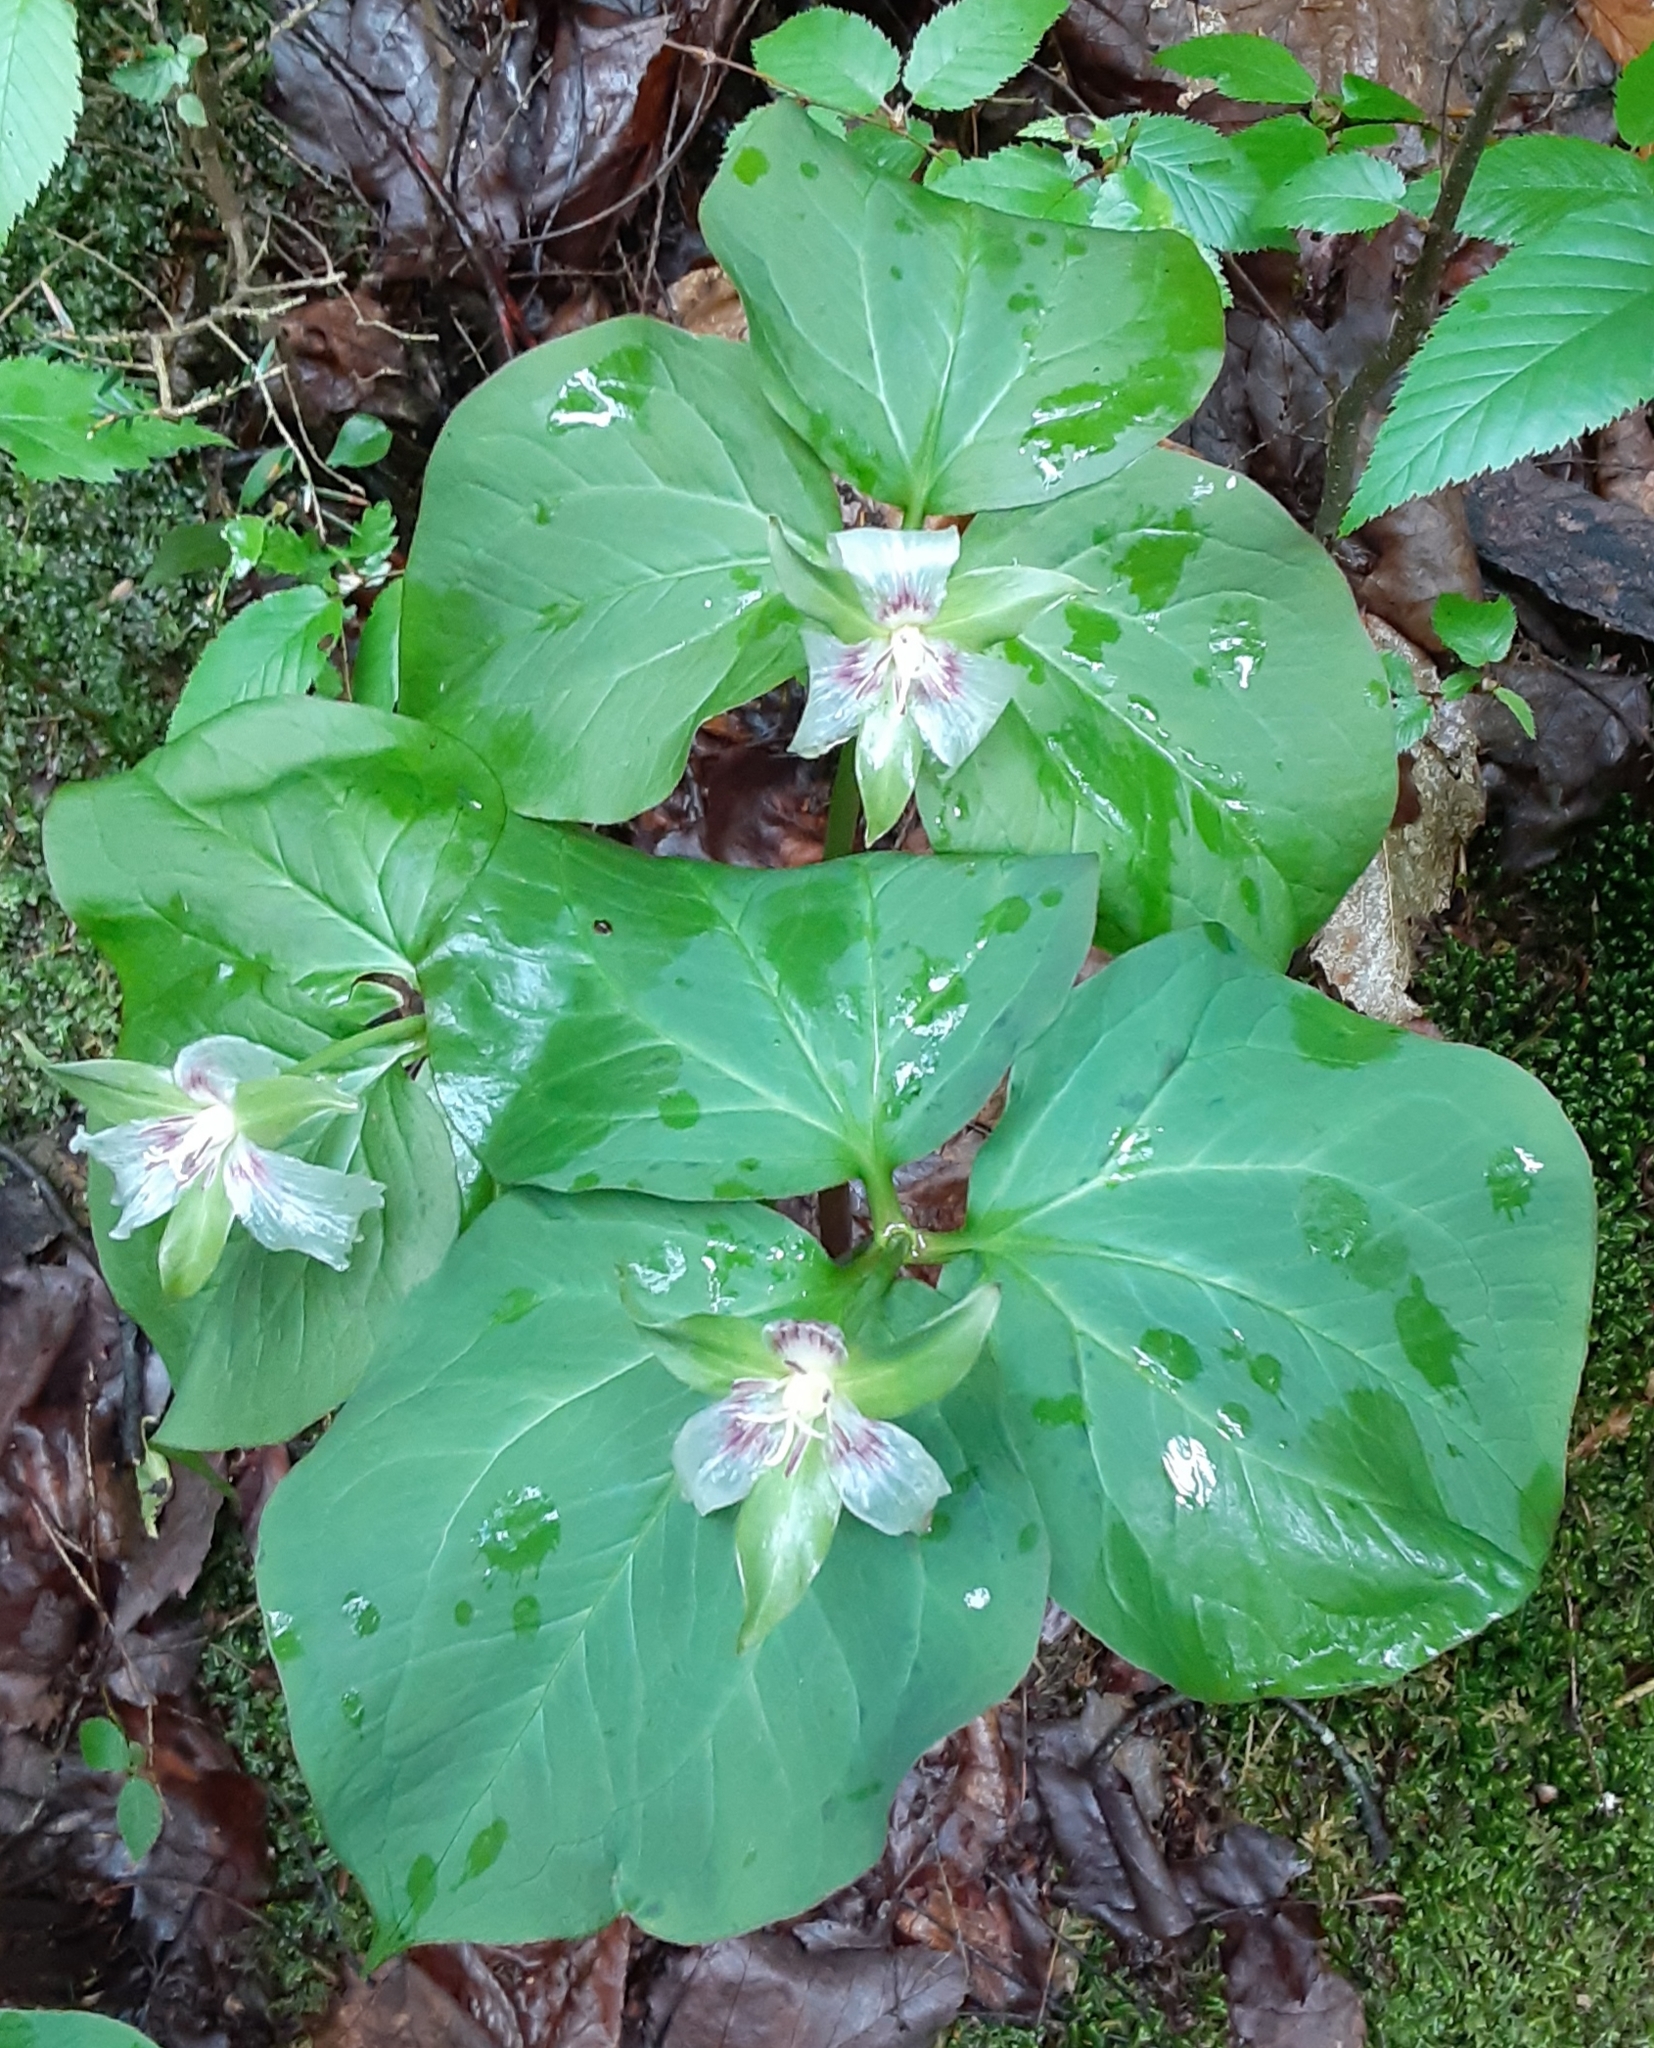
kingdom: Plantae
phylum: Tracheophyta
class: Liliopsida
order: Liliales
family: Melanthiaceae
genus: Trillium
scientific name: Trillium undulatum
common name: Paint trillium
